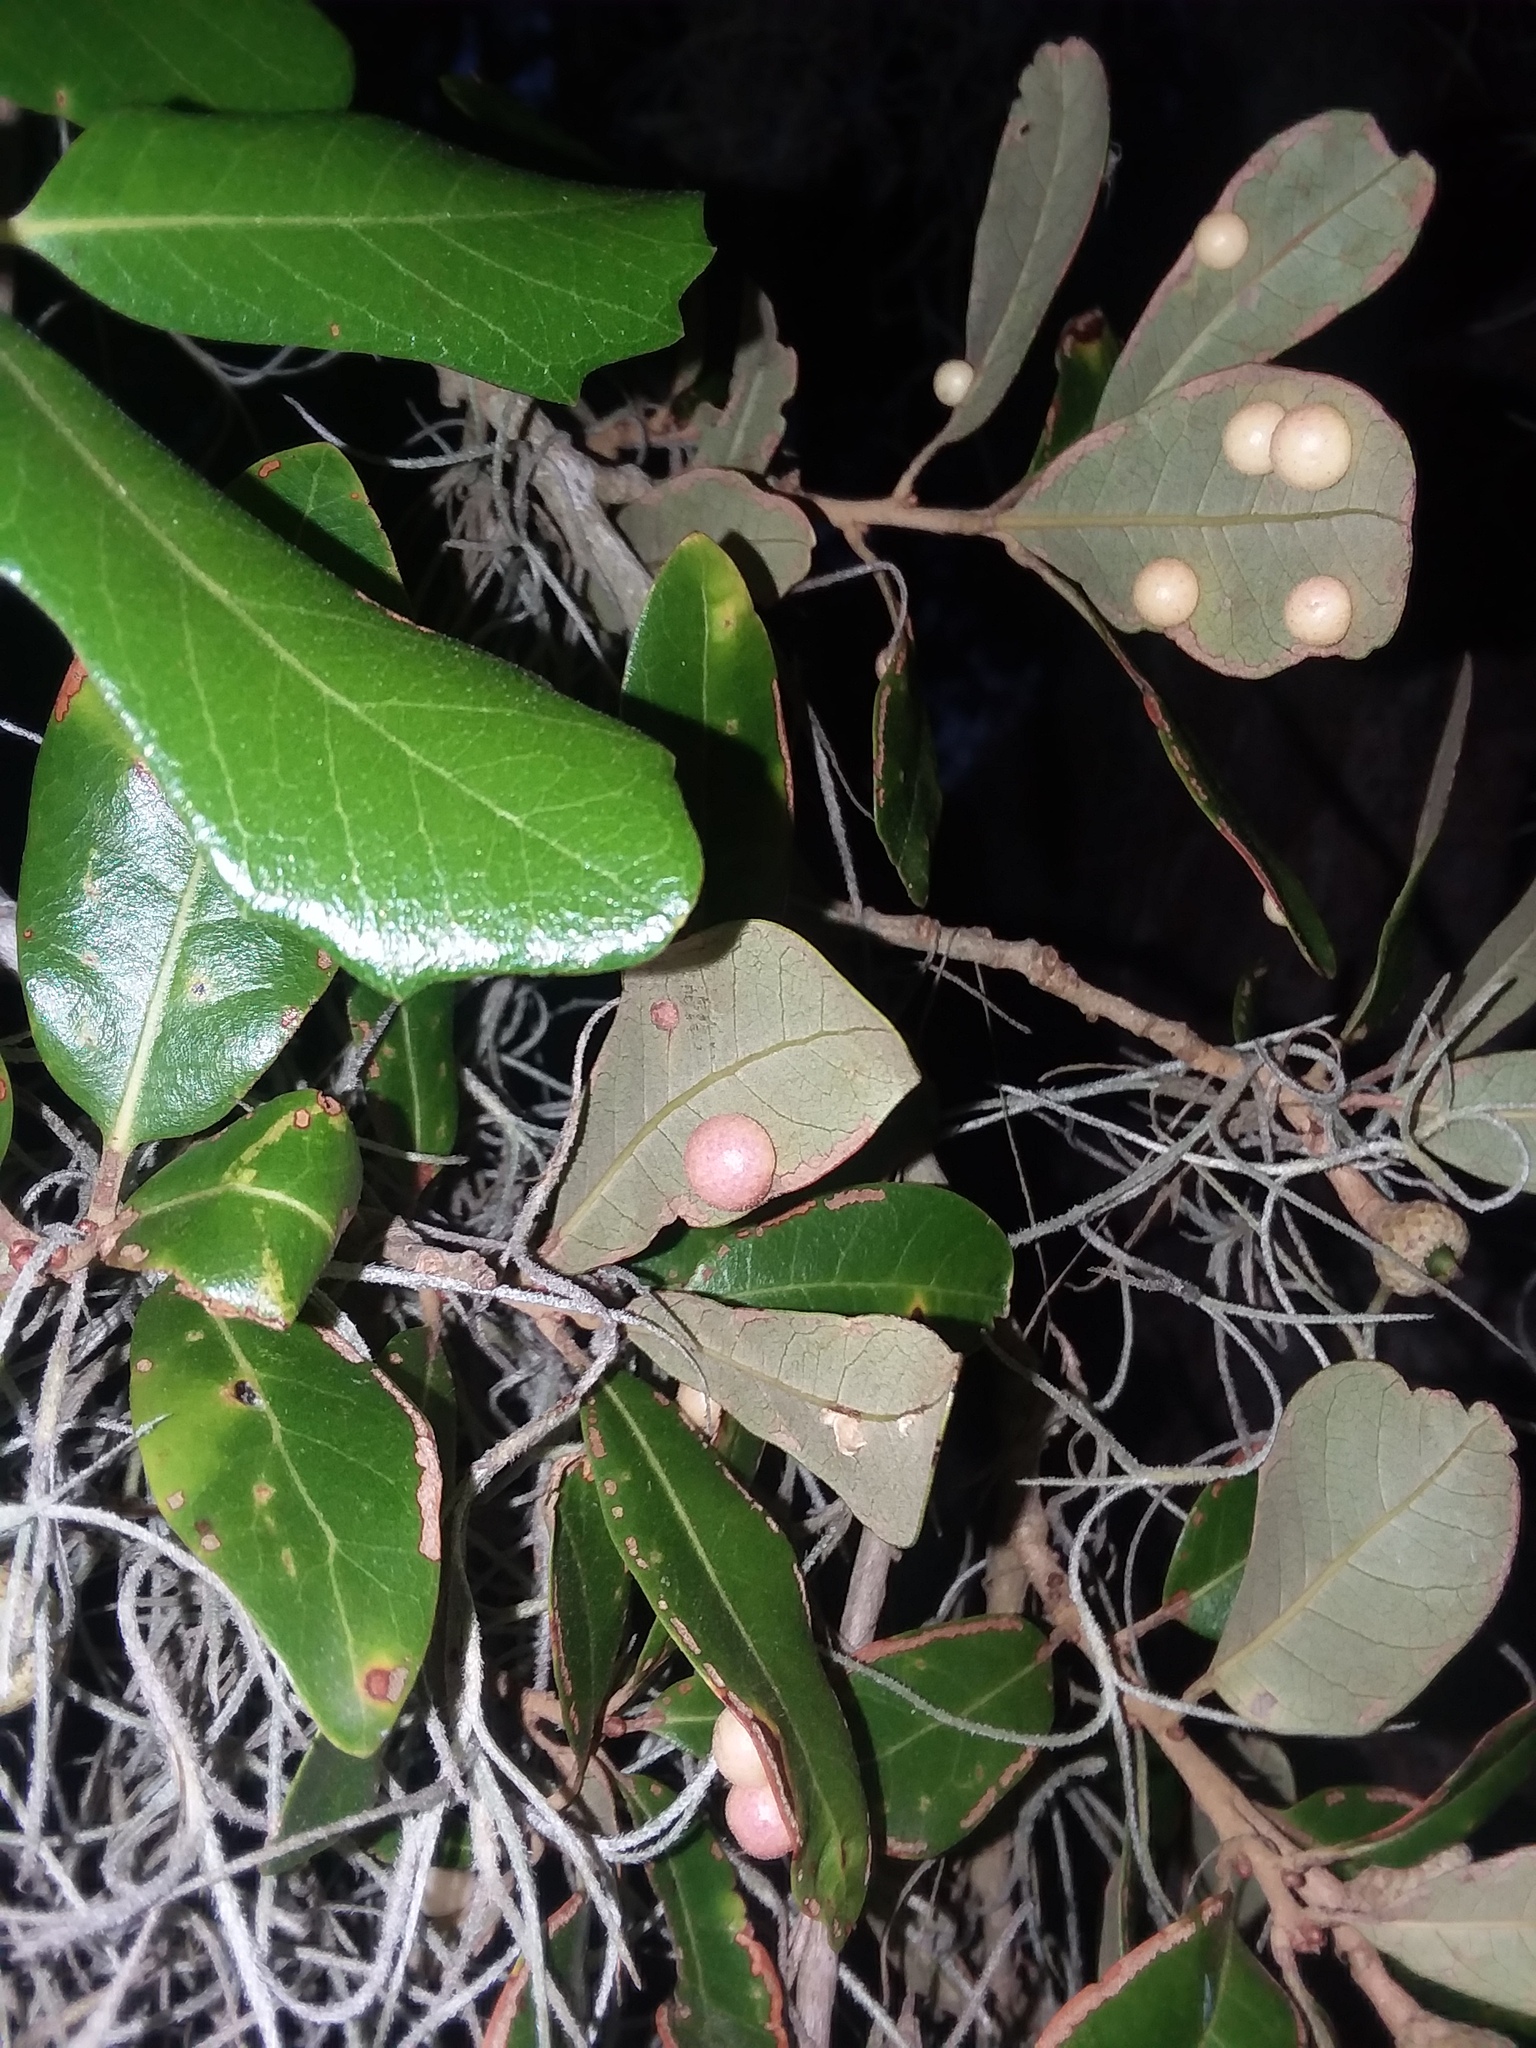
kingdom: Animalia
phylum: Arthropoda
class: Insecta
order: Hymenoptera
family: Cynipidae
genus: Belonocnema
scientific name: Belonocnema treatae
